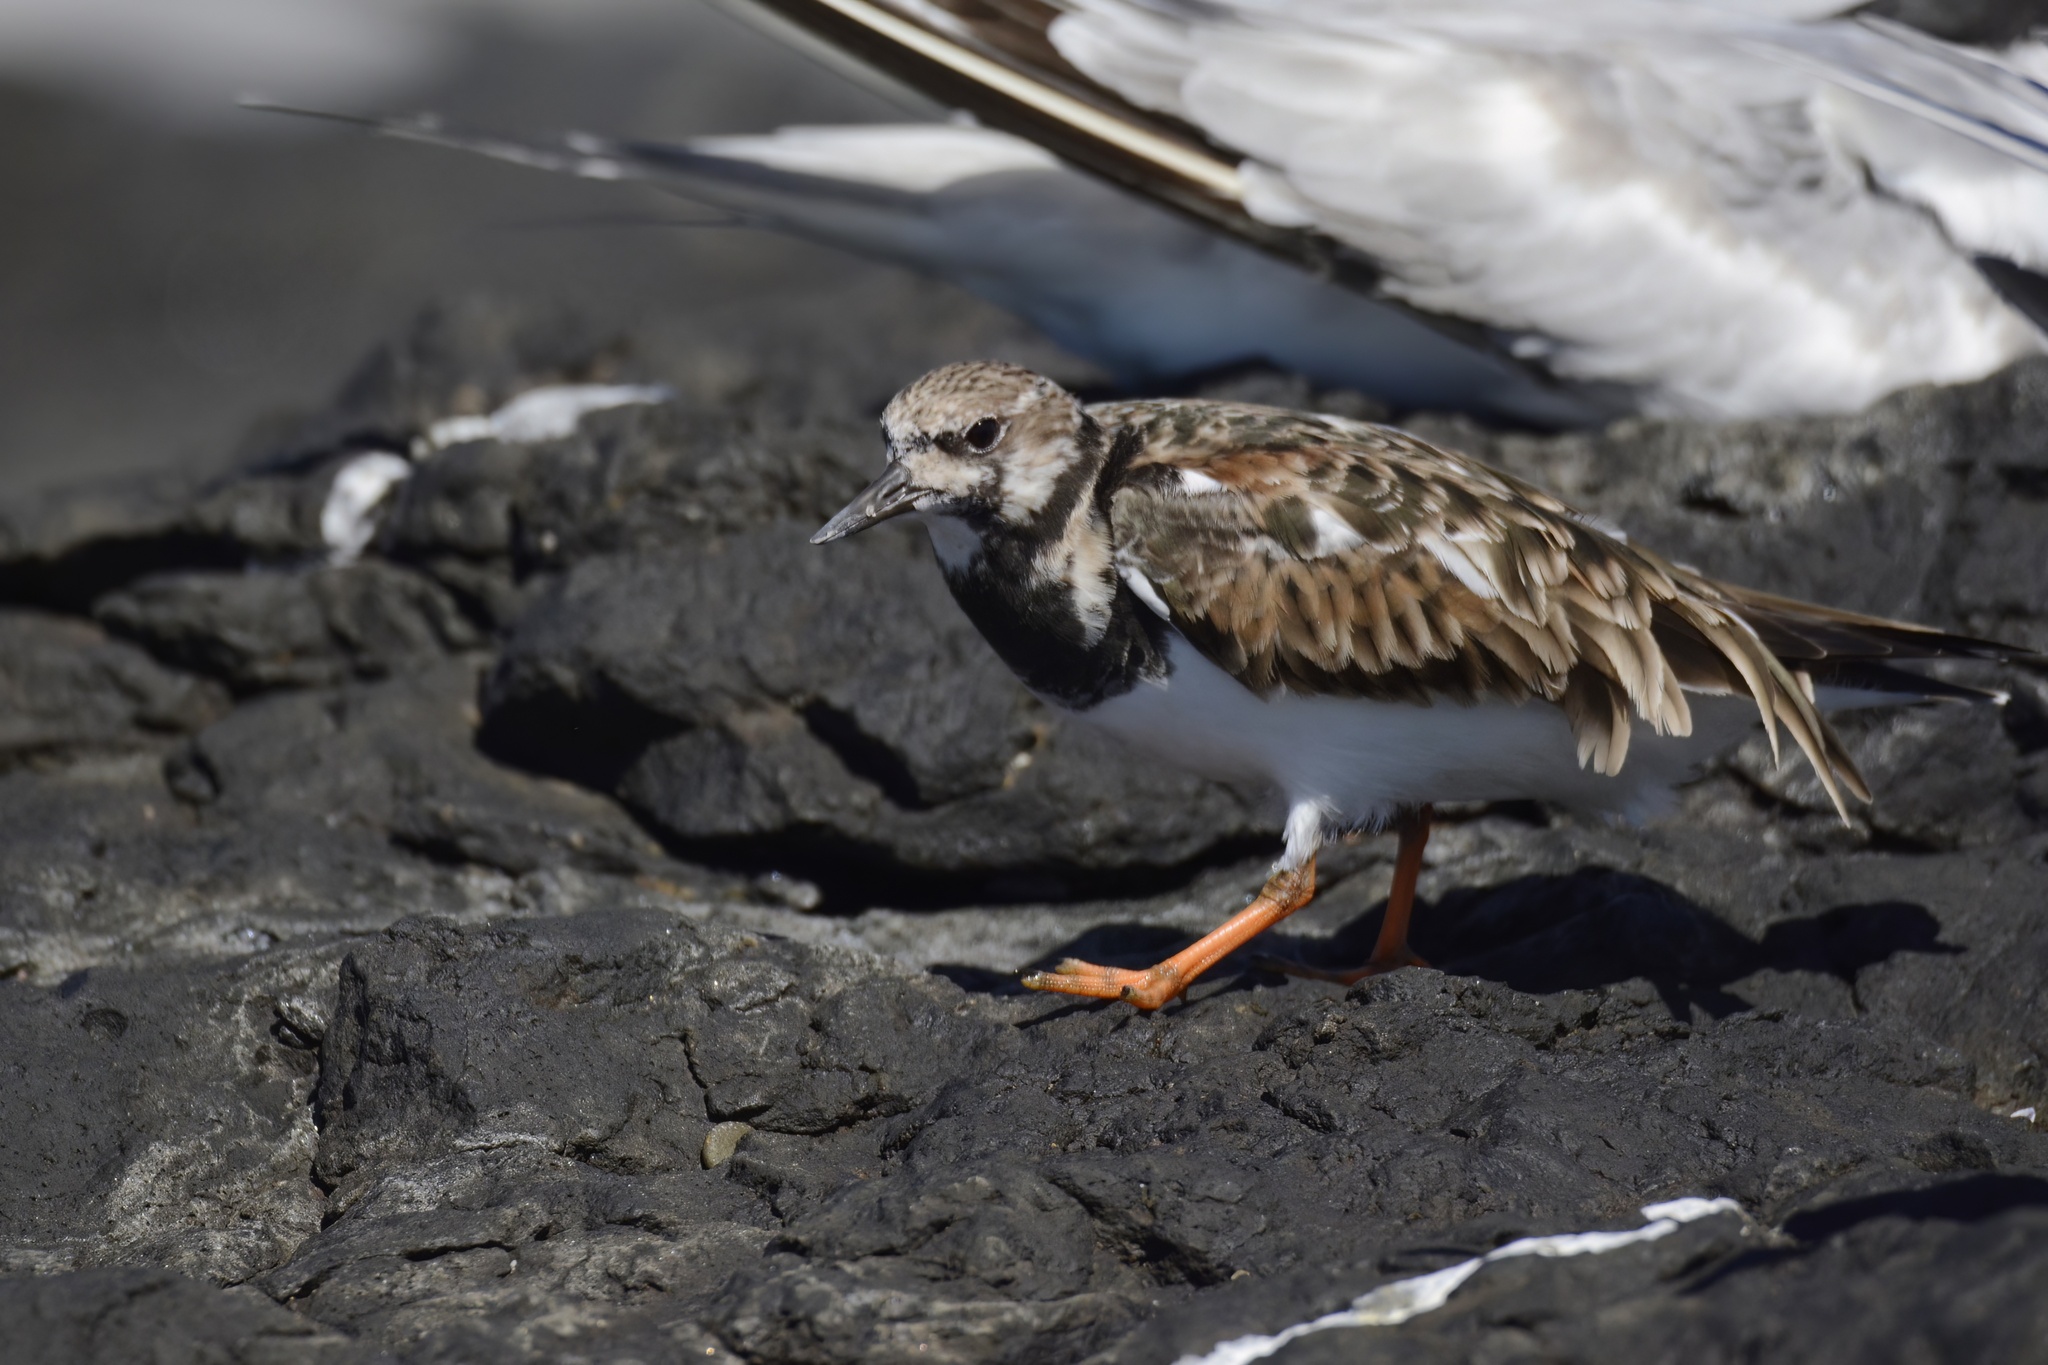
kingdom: Animalia
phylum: Chordata
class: Aves
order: Charadriiformes
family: Scolopacidae
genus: Arenaria
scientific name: Arenaria interpres
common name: Ruddy turnstone
